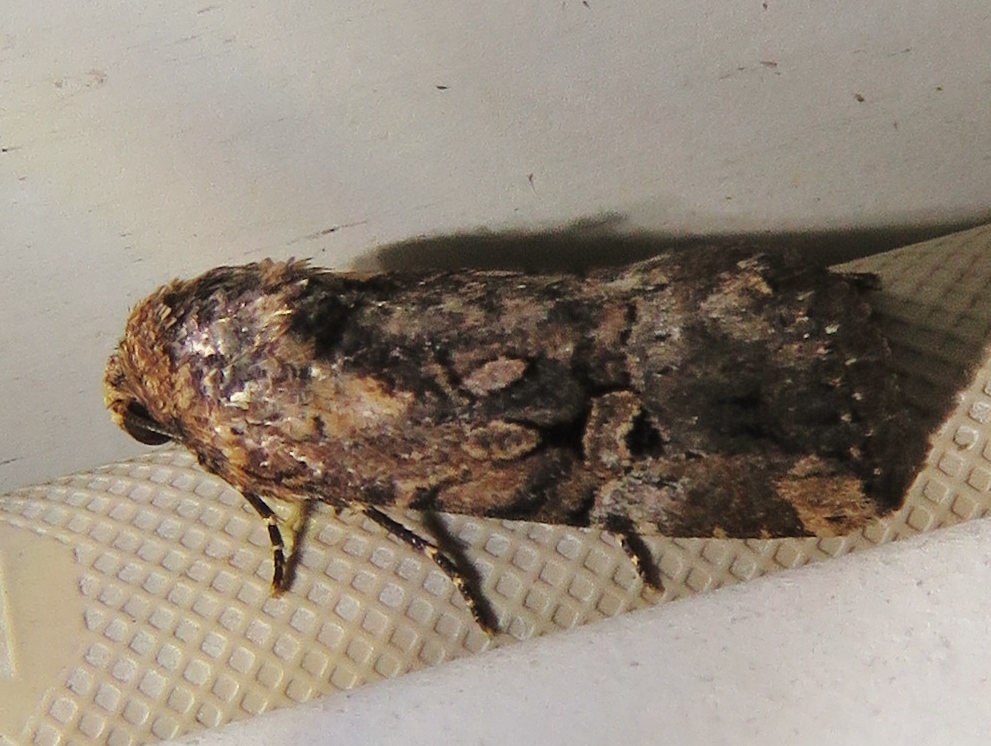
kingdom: Animalia
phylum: Arthropoda
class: Insecta
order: Lepidoptera
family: Noctuidae
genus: Elaphria
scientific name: Elaphria chalcedonia
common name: Chalcedony midget
